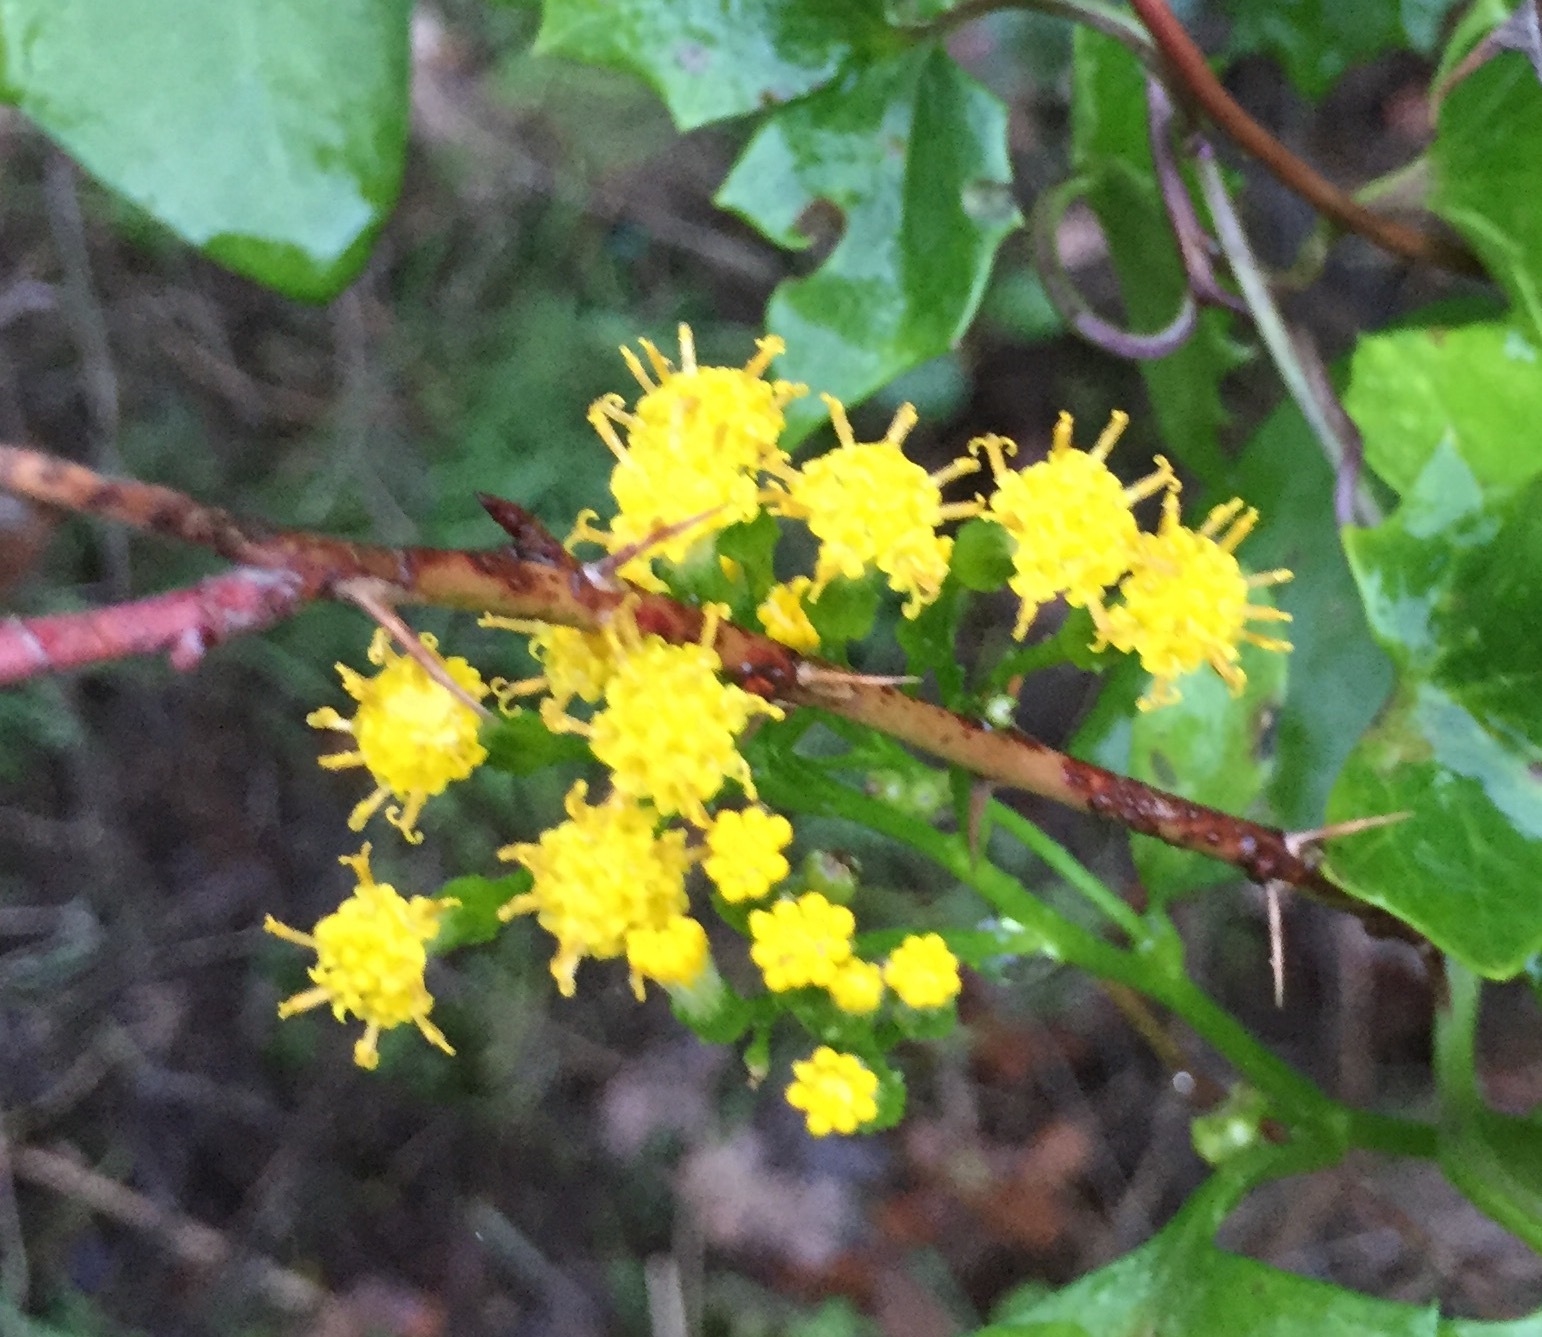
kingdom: Plantae
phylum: Tracheophyta
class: Magnoliopsida
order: Asterales
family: Asteraceae
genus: Delairea
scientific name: Delairea odorata
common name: Cape-ivy
